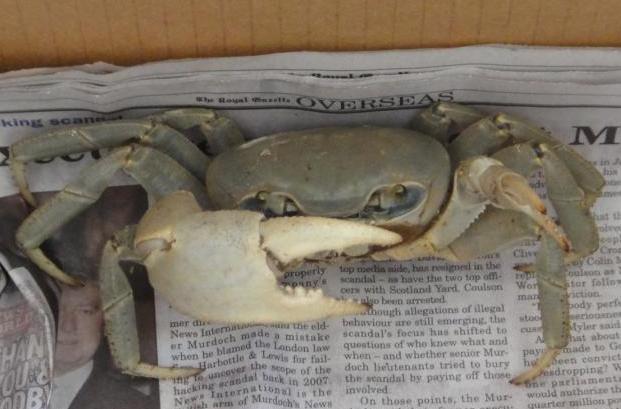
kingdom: Animalia
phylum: Arthropoda
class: Malacostraca
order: Decapoda
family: Gecarcinidae
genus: Cardisoma
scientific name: Cardisoma guanhumi
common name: Great land crab
